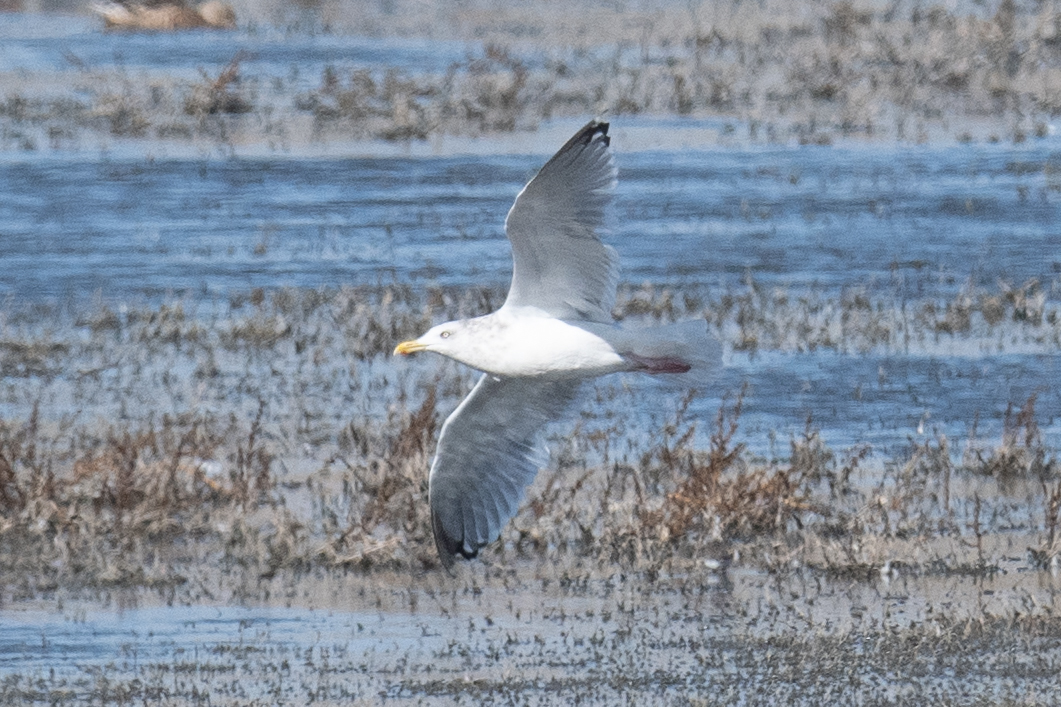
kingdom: Animalia
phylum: Chordata
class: Aves
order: Charadriiformes
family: Laridae
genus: Larus
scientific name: Larus argentatus
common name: Herring gull
